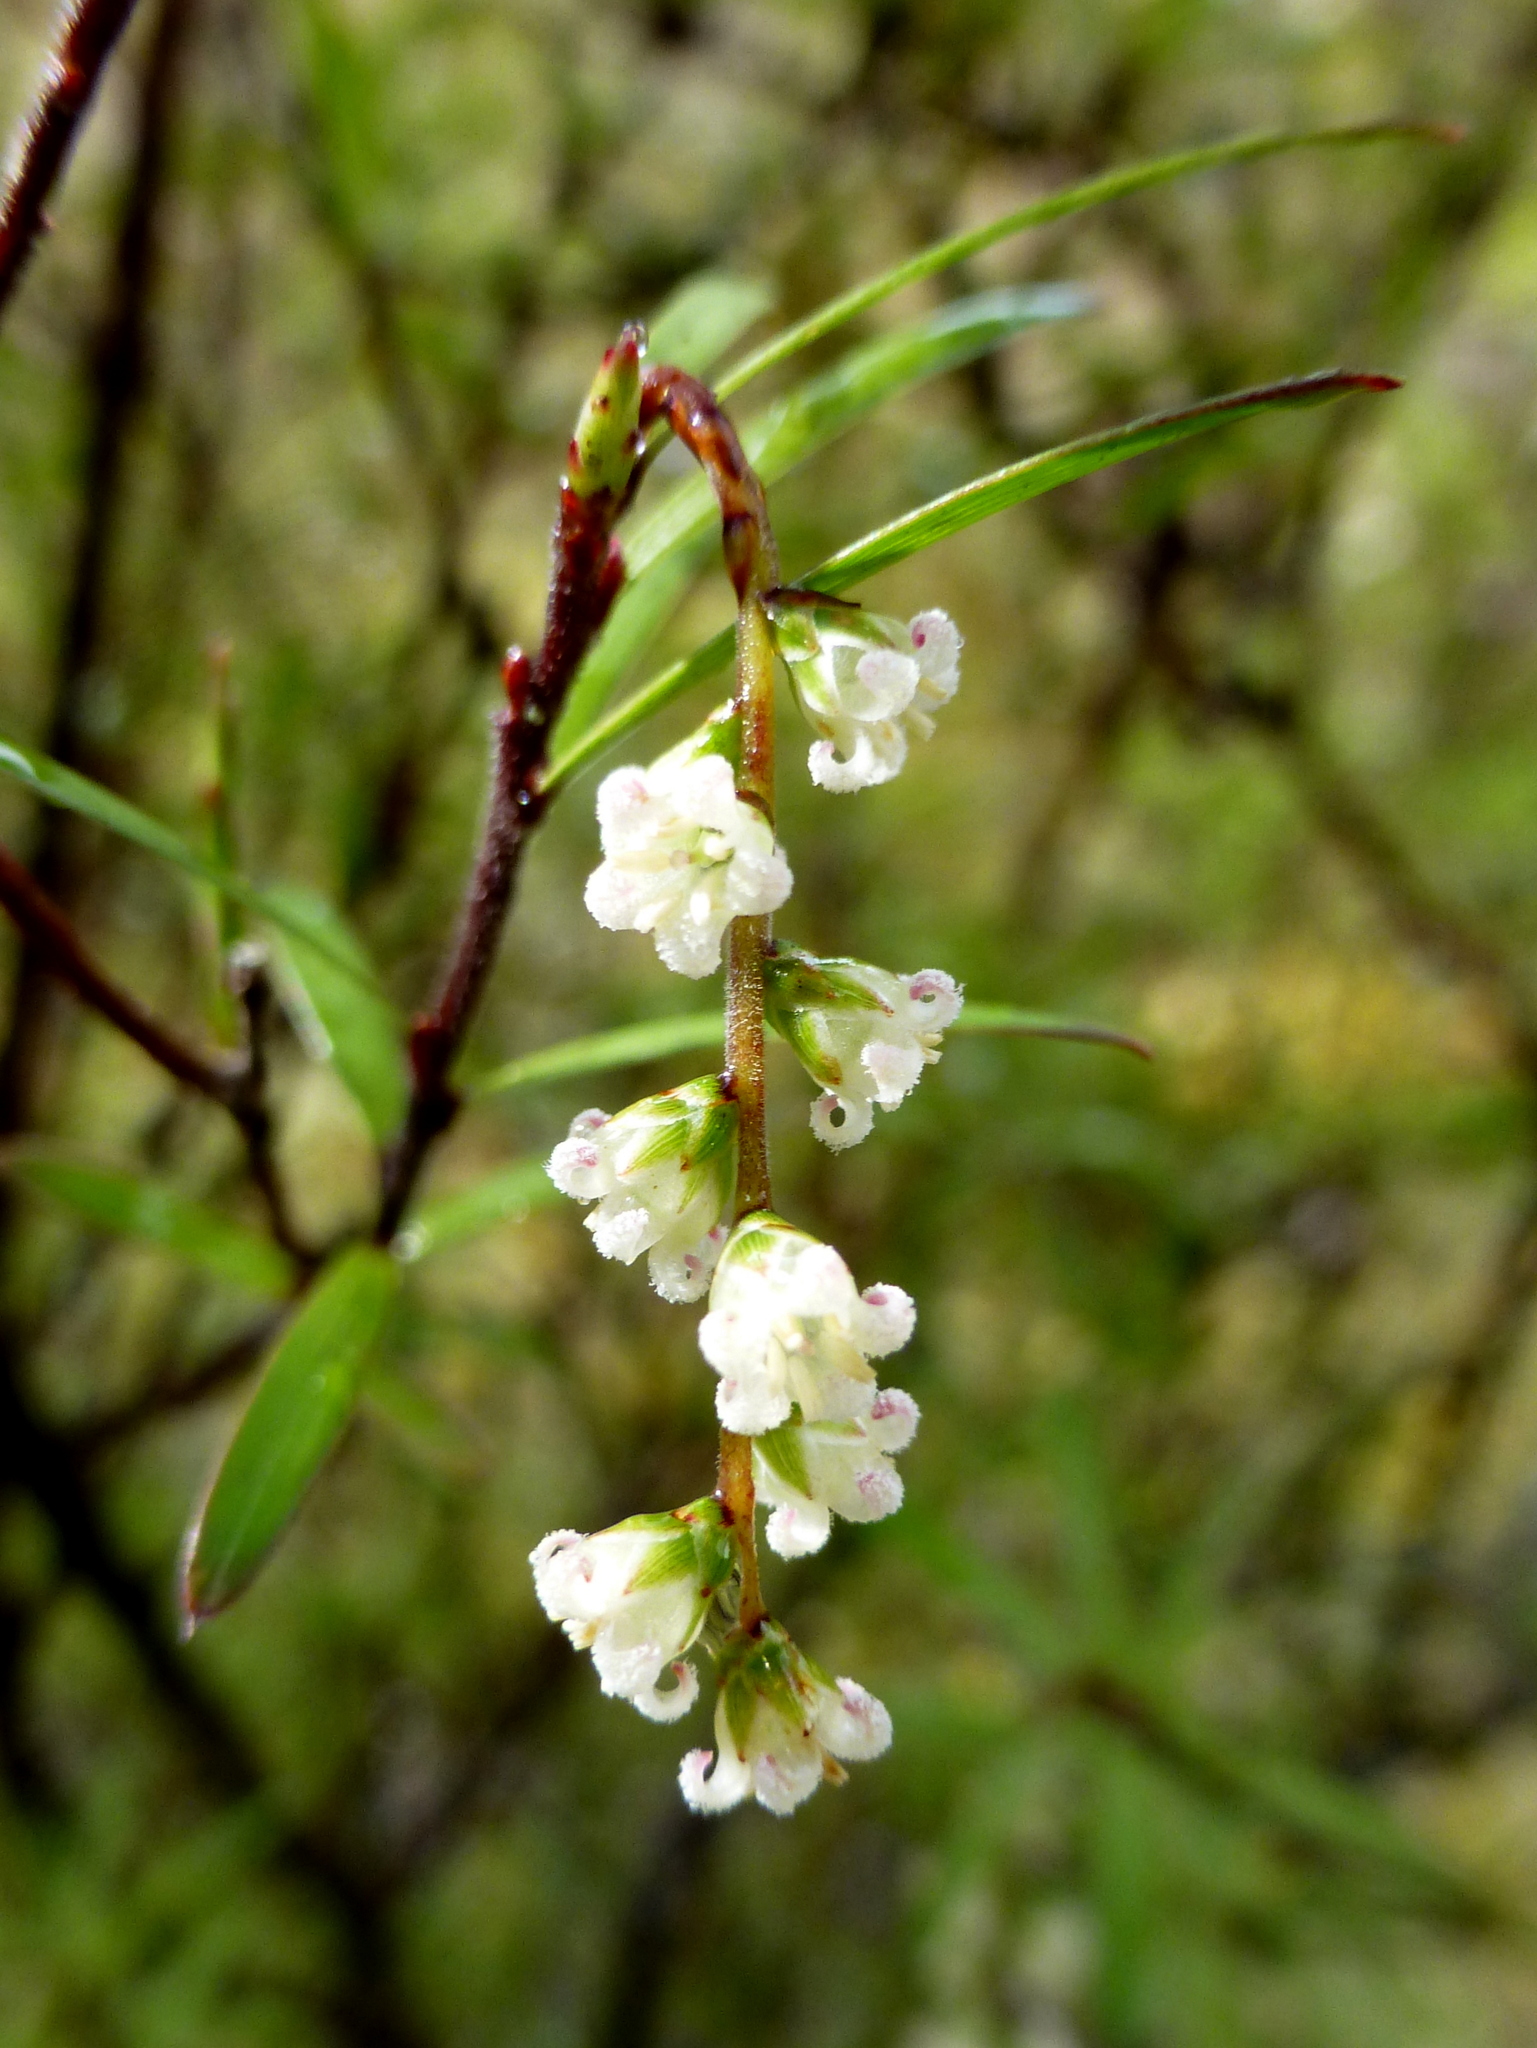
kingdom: Plantae
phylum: Tracheophyta
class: Magnoliopsida
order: Ericales
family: Ericaceae
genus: Leucopogon
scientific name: Leucopogon fasciculatus
